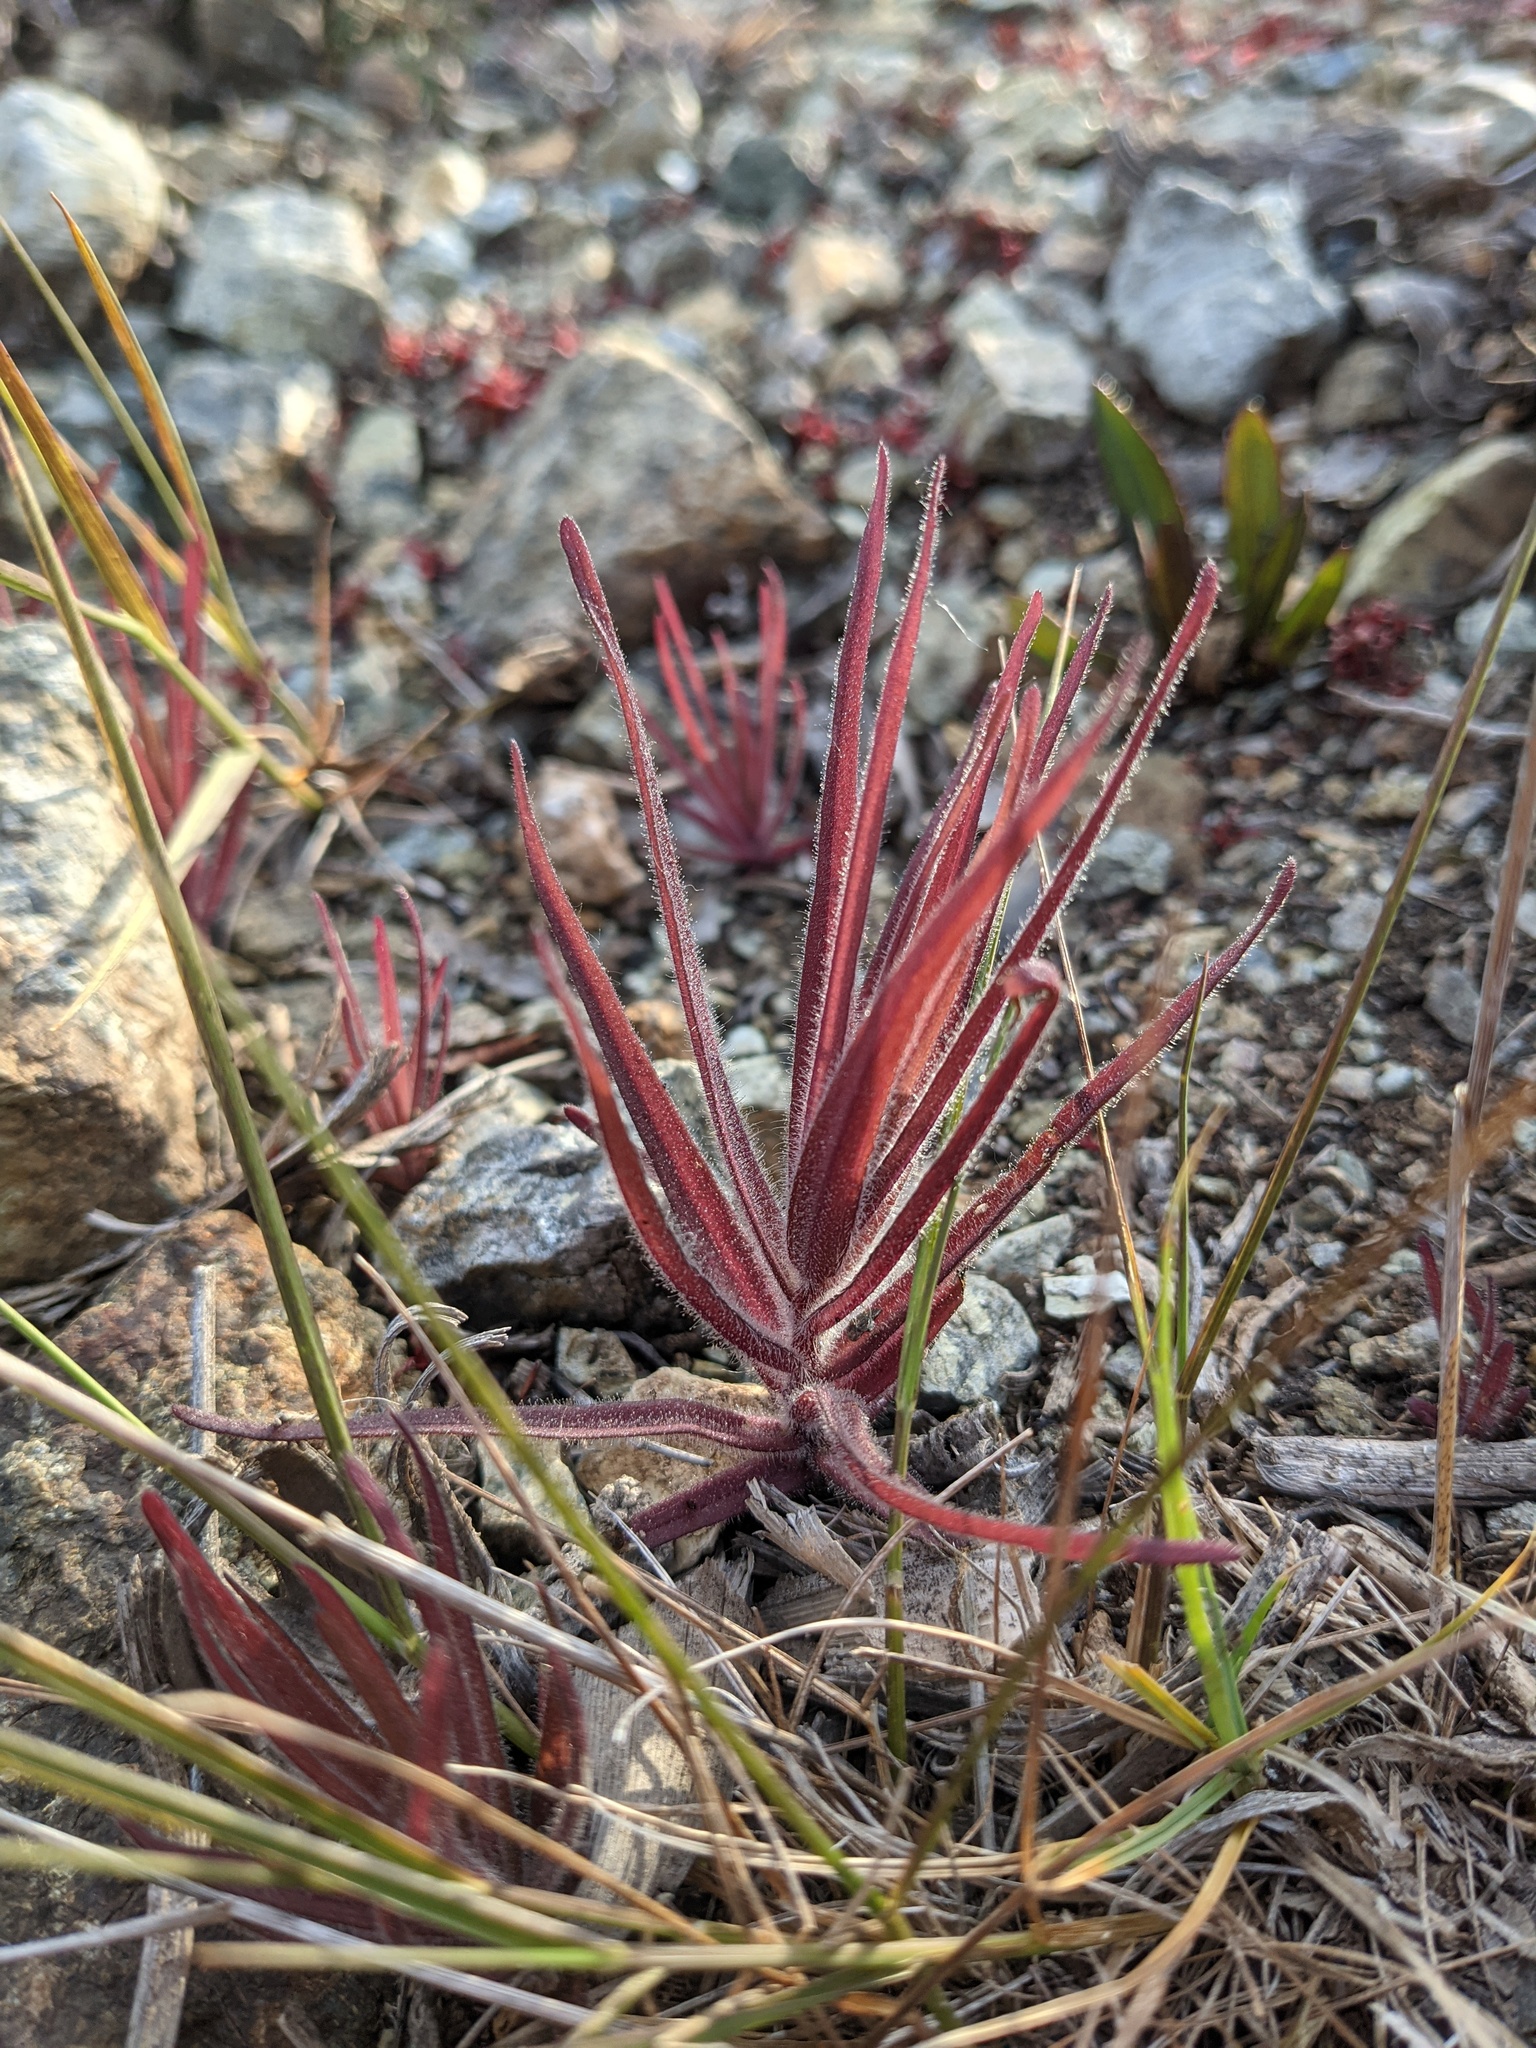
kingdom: Plantae
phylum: Tracheophyta
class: Magnoliopsida
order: Lamiales
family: Orobanchaceae
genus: Castilleja
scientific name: Castilleja minor
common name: Seep paintbrush
